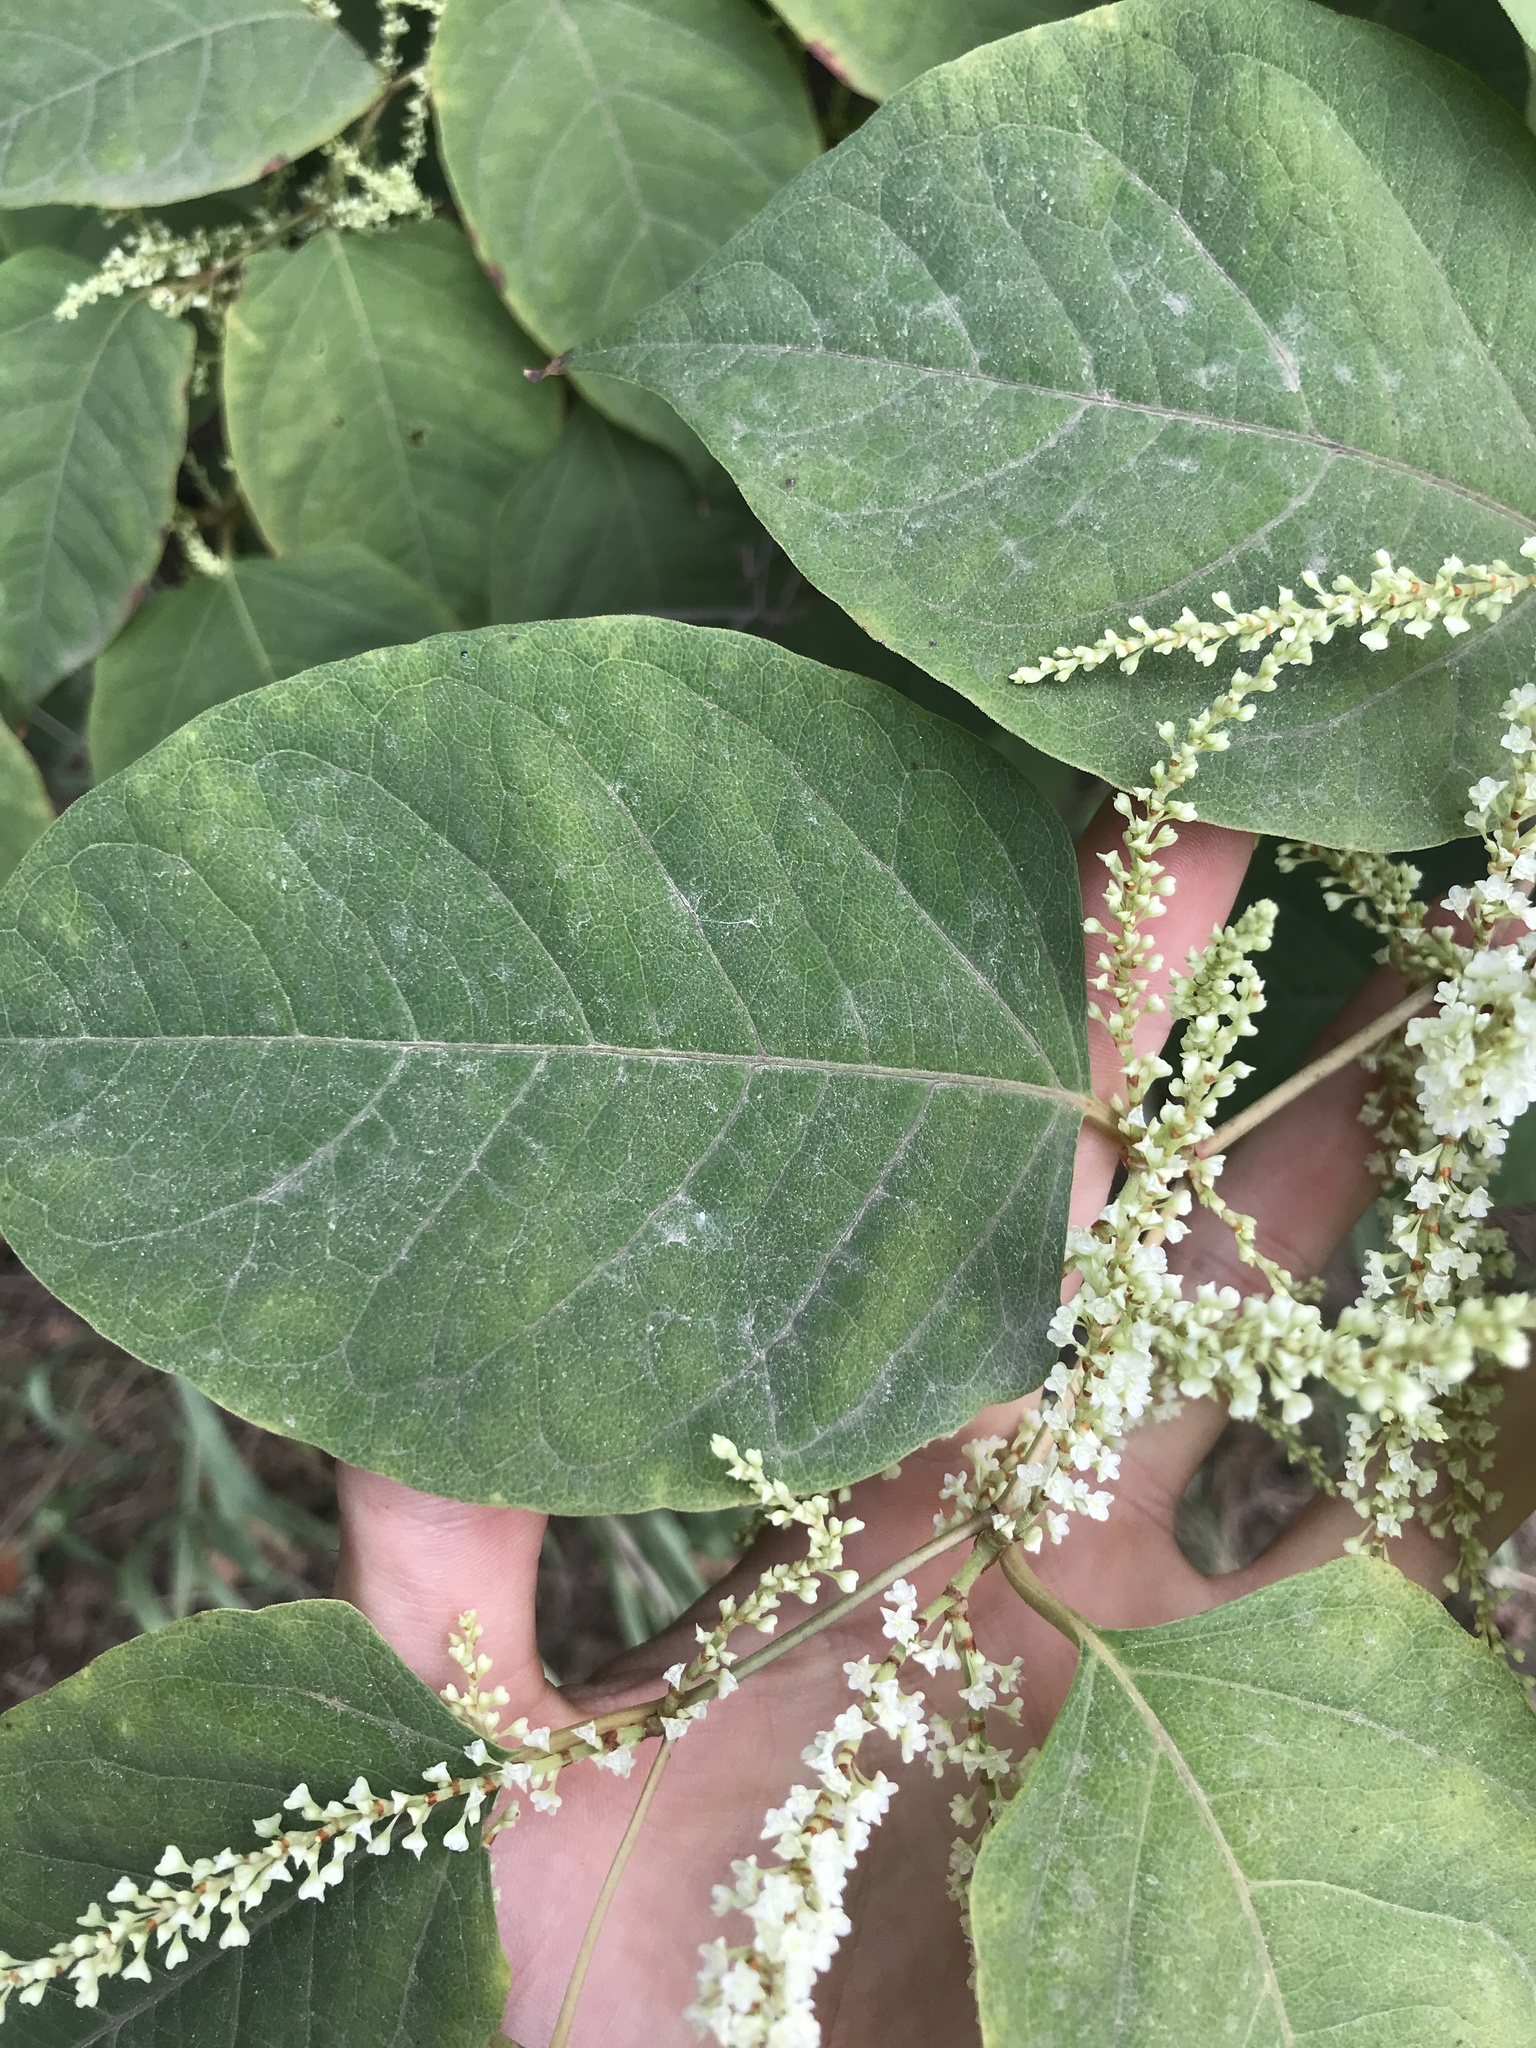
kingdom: Plantae
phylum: Tracheophyta
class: Magnoliopsida
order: Caryophyllales
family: Polygonaceae
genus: Reynoutria
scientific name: Reynoutria japonica
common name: Japanese knotweed
